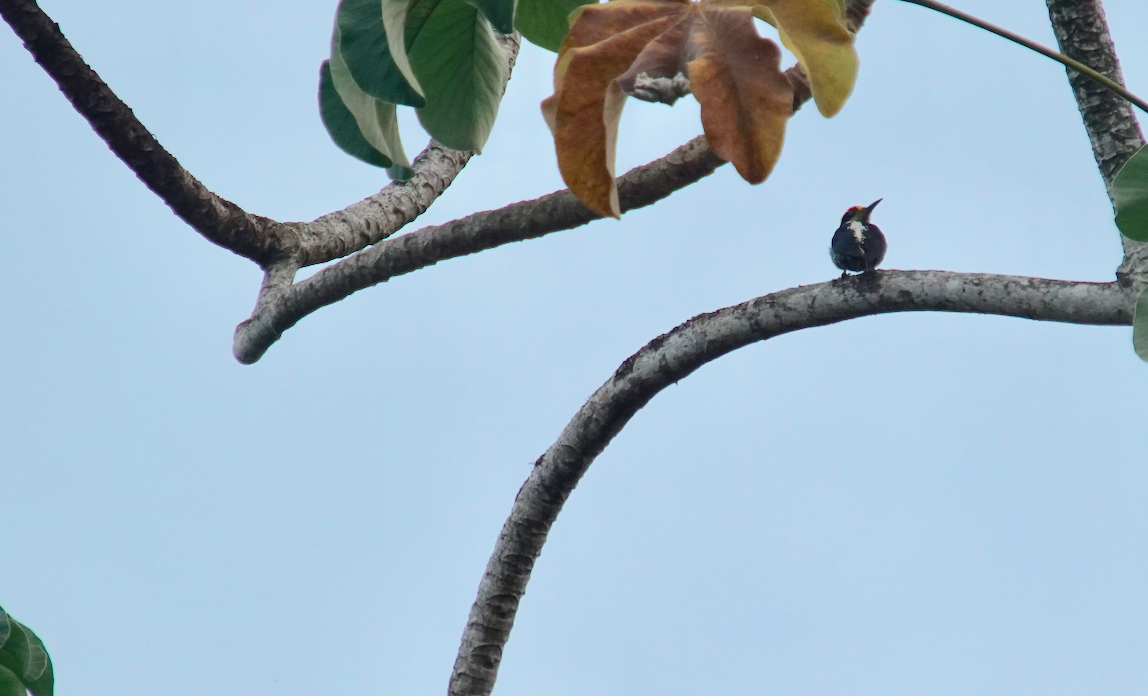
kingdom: Animalia
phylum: Chordata
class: Aves
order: Piciformes
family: Picidae
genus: Melanerpes
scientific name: Melanerpes chrysauchen
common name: Golden-naped woodpecker
